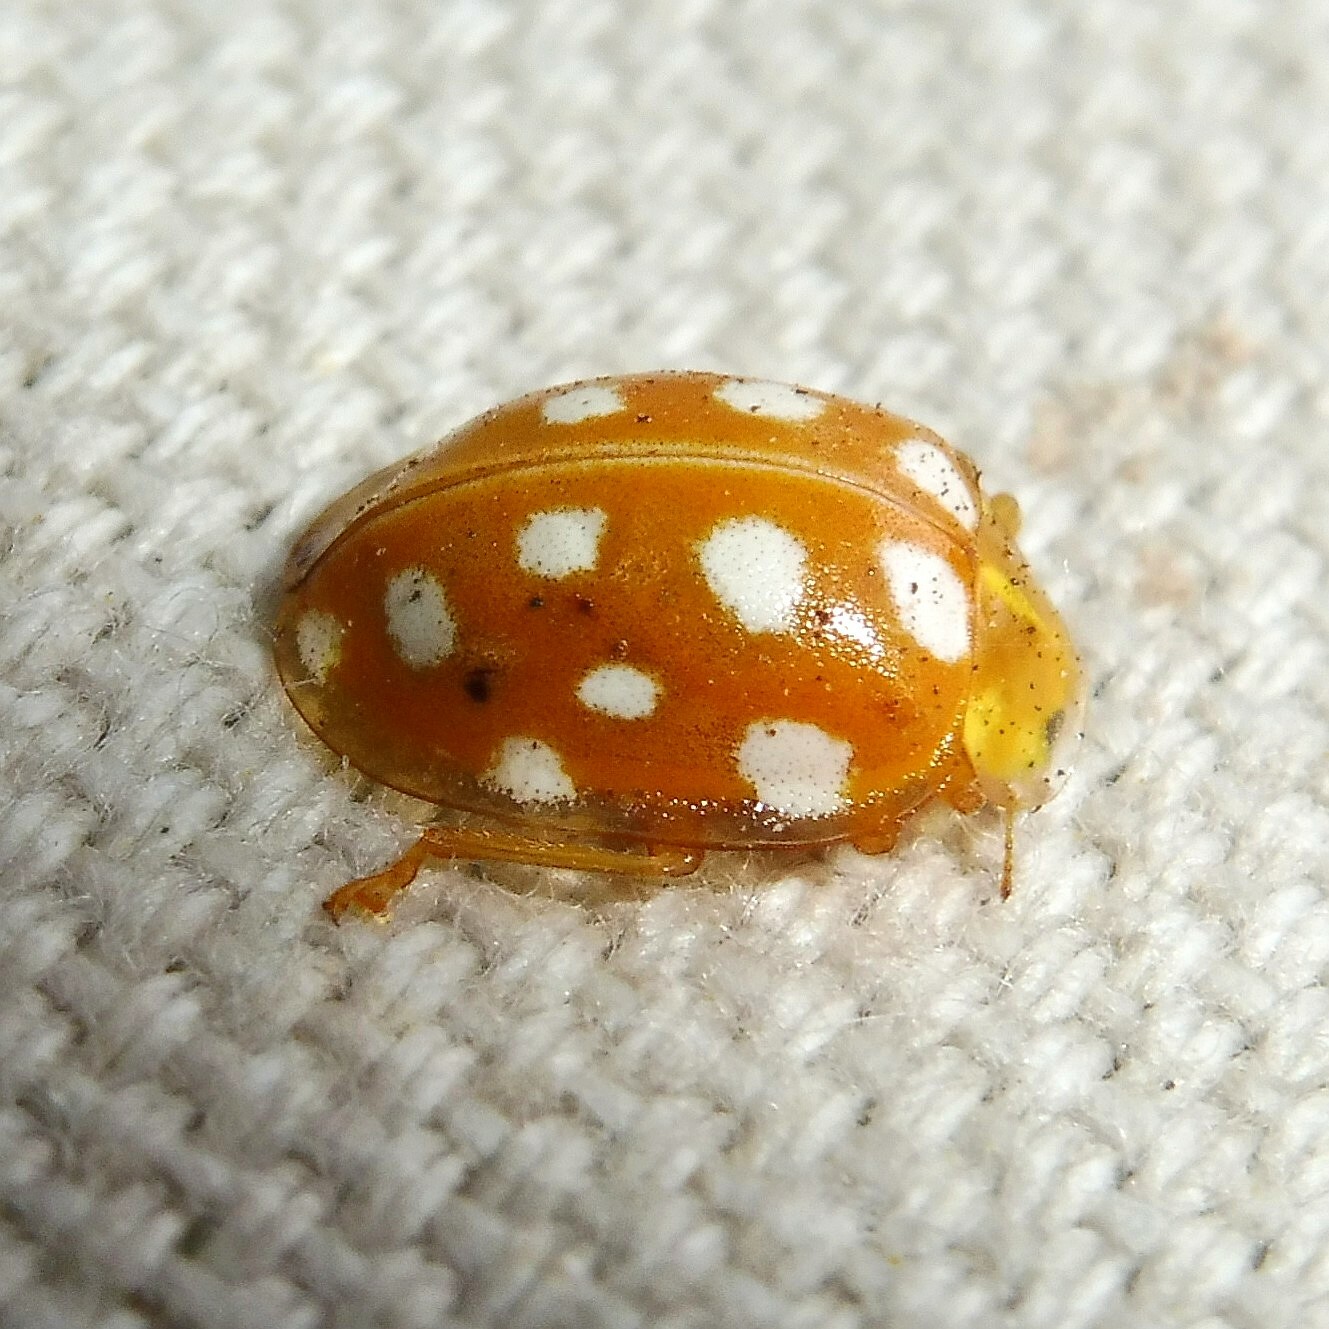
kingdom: Animalia
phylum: Arthropoda
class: Insecta
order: Coleoptera
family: Coccinellidae
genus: Halyzia
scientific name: Halyzia sedecimguttata
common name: Orange ladybird
